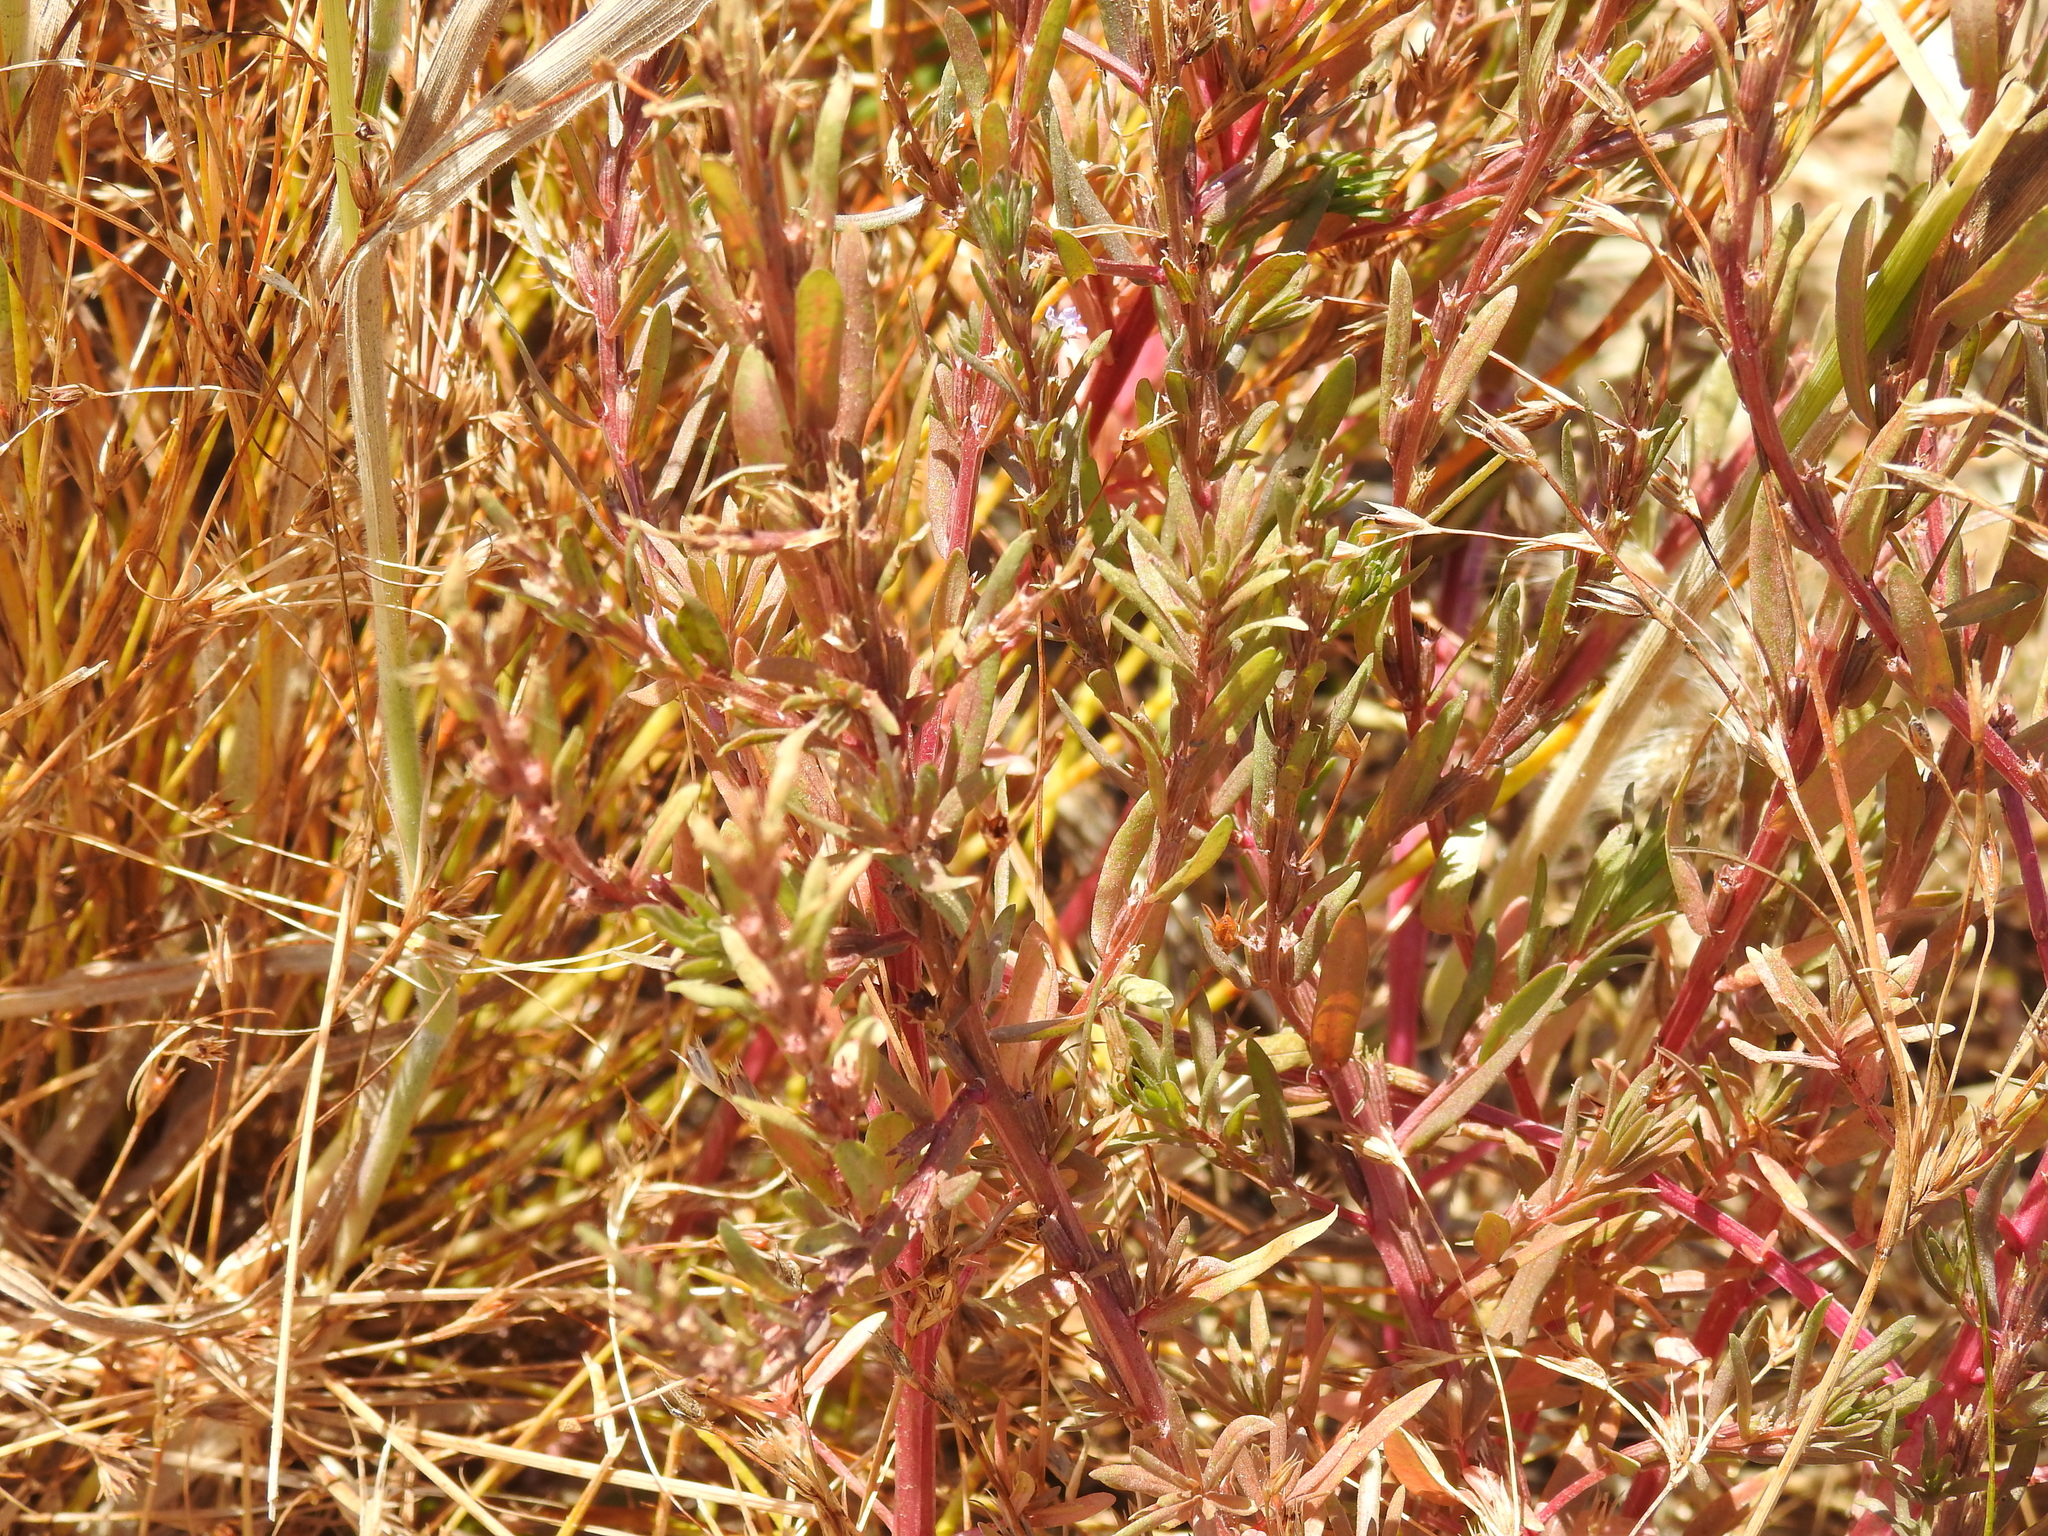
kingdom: Plantae
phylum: Tracheophyta
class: Magnoliopsida
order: Myrtales
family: Lythraceae
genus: Lythrum
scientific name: Lythrum hyssopifolia
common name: Grass-poly
